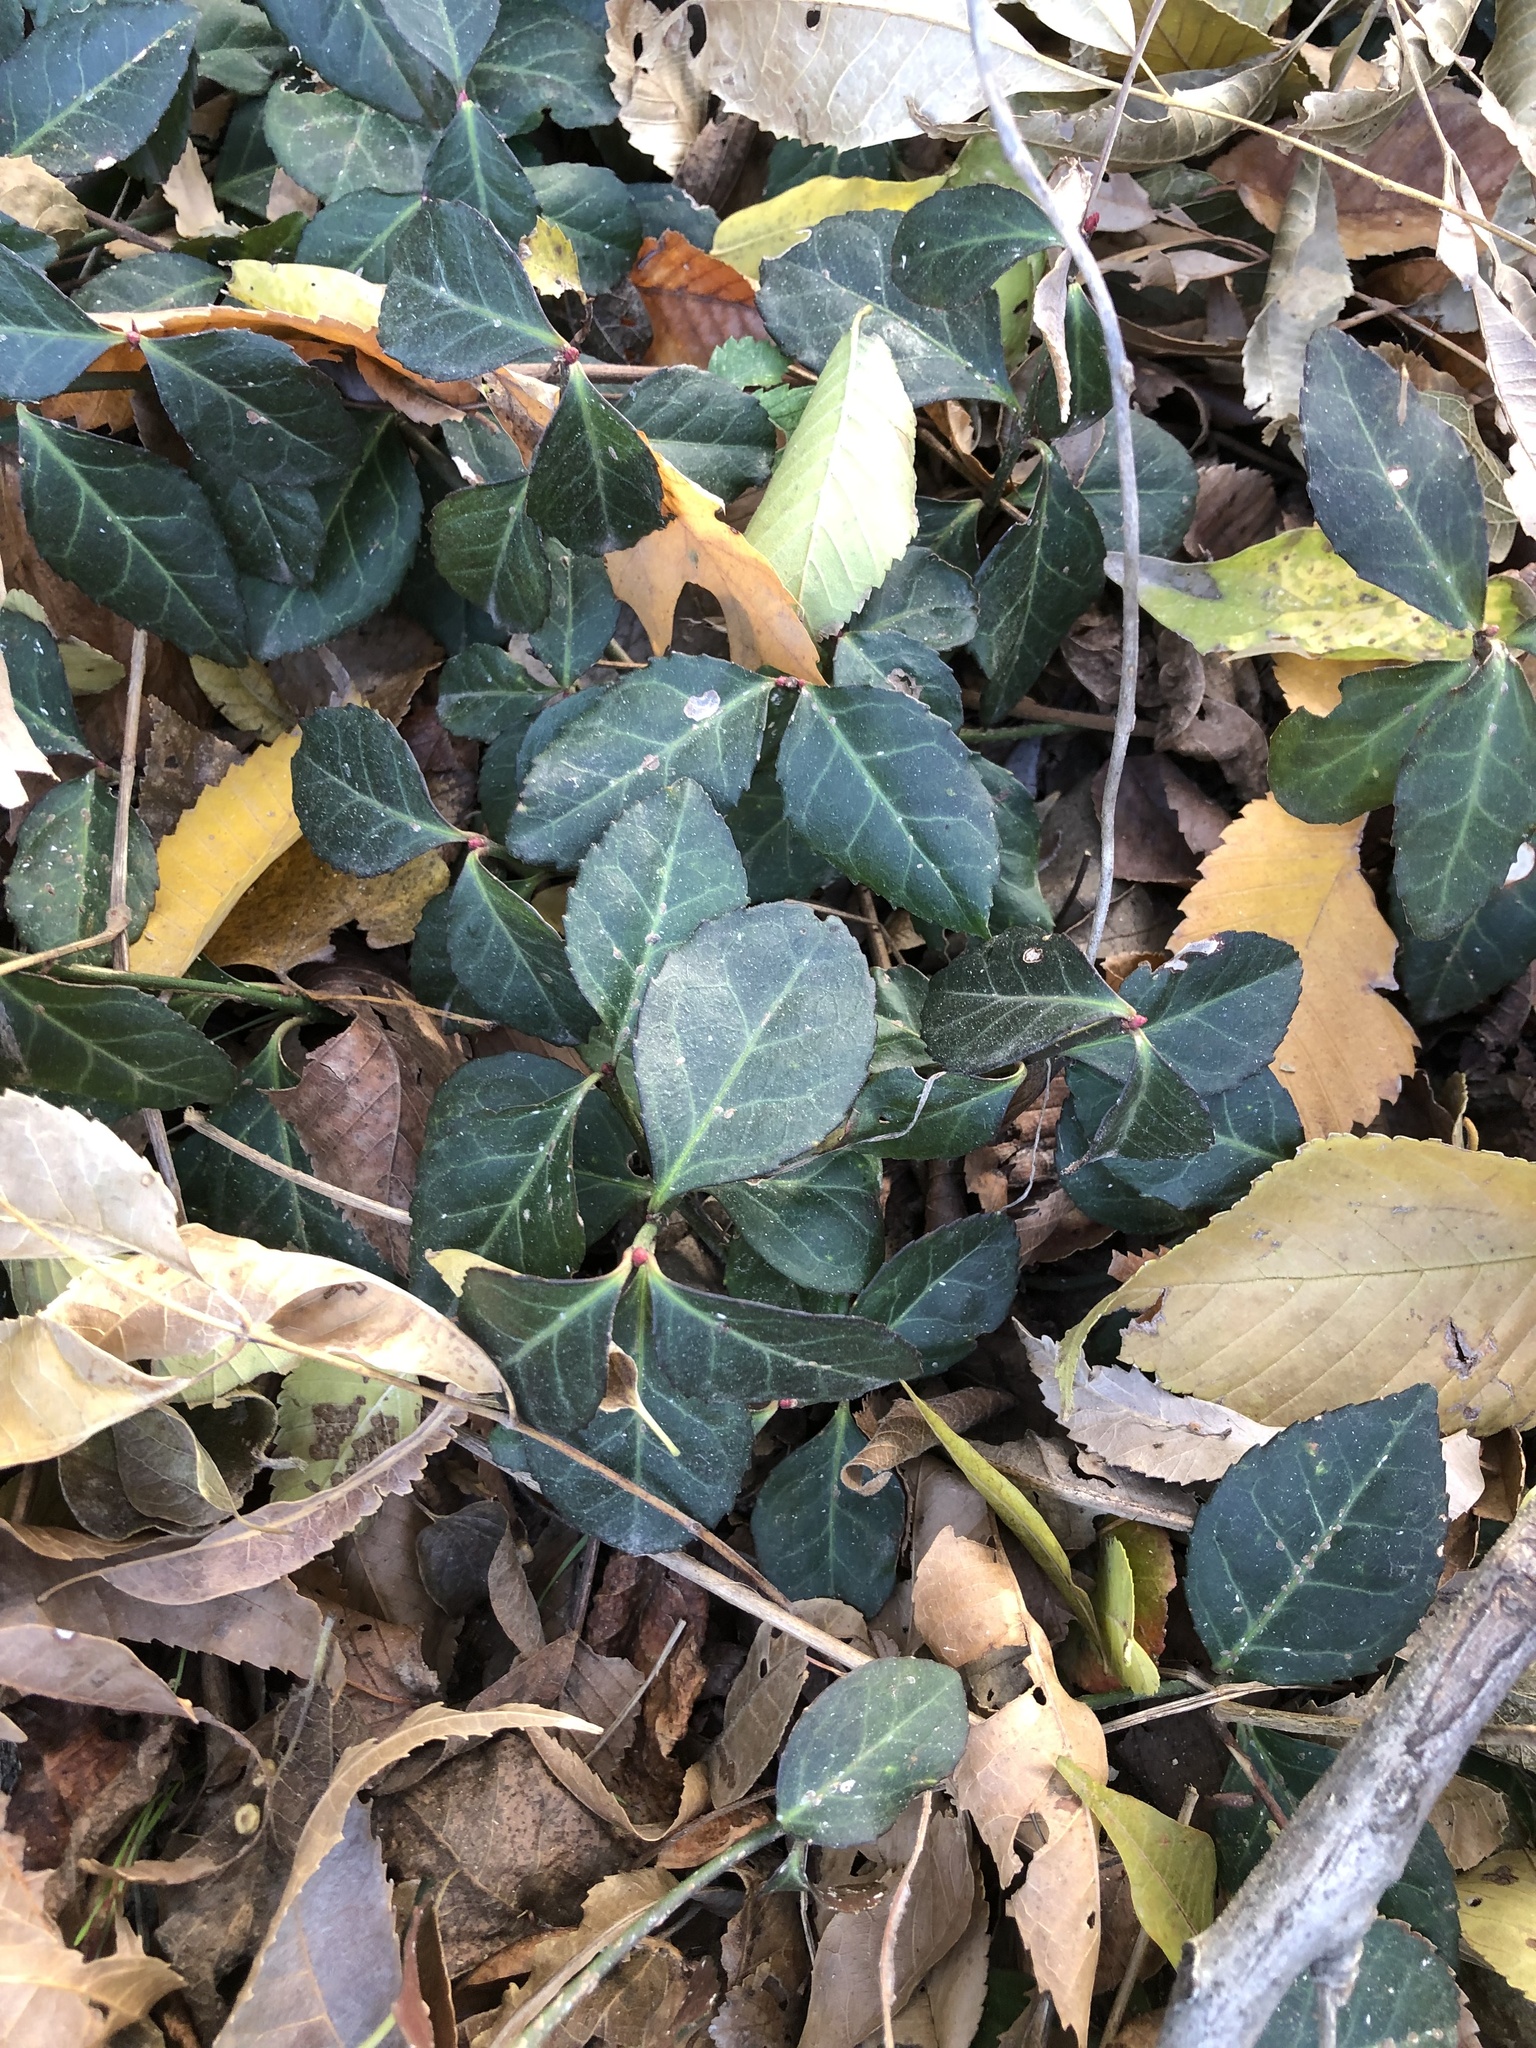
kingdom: Plantae
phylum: Tracheophyta
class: Magnoliopsida
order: Celastrales
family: Celastraceae
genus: Euonymus
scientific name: Euonymus fortunei
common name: Climbing euonymus
